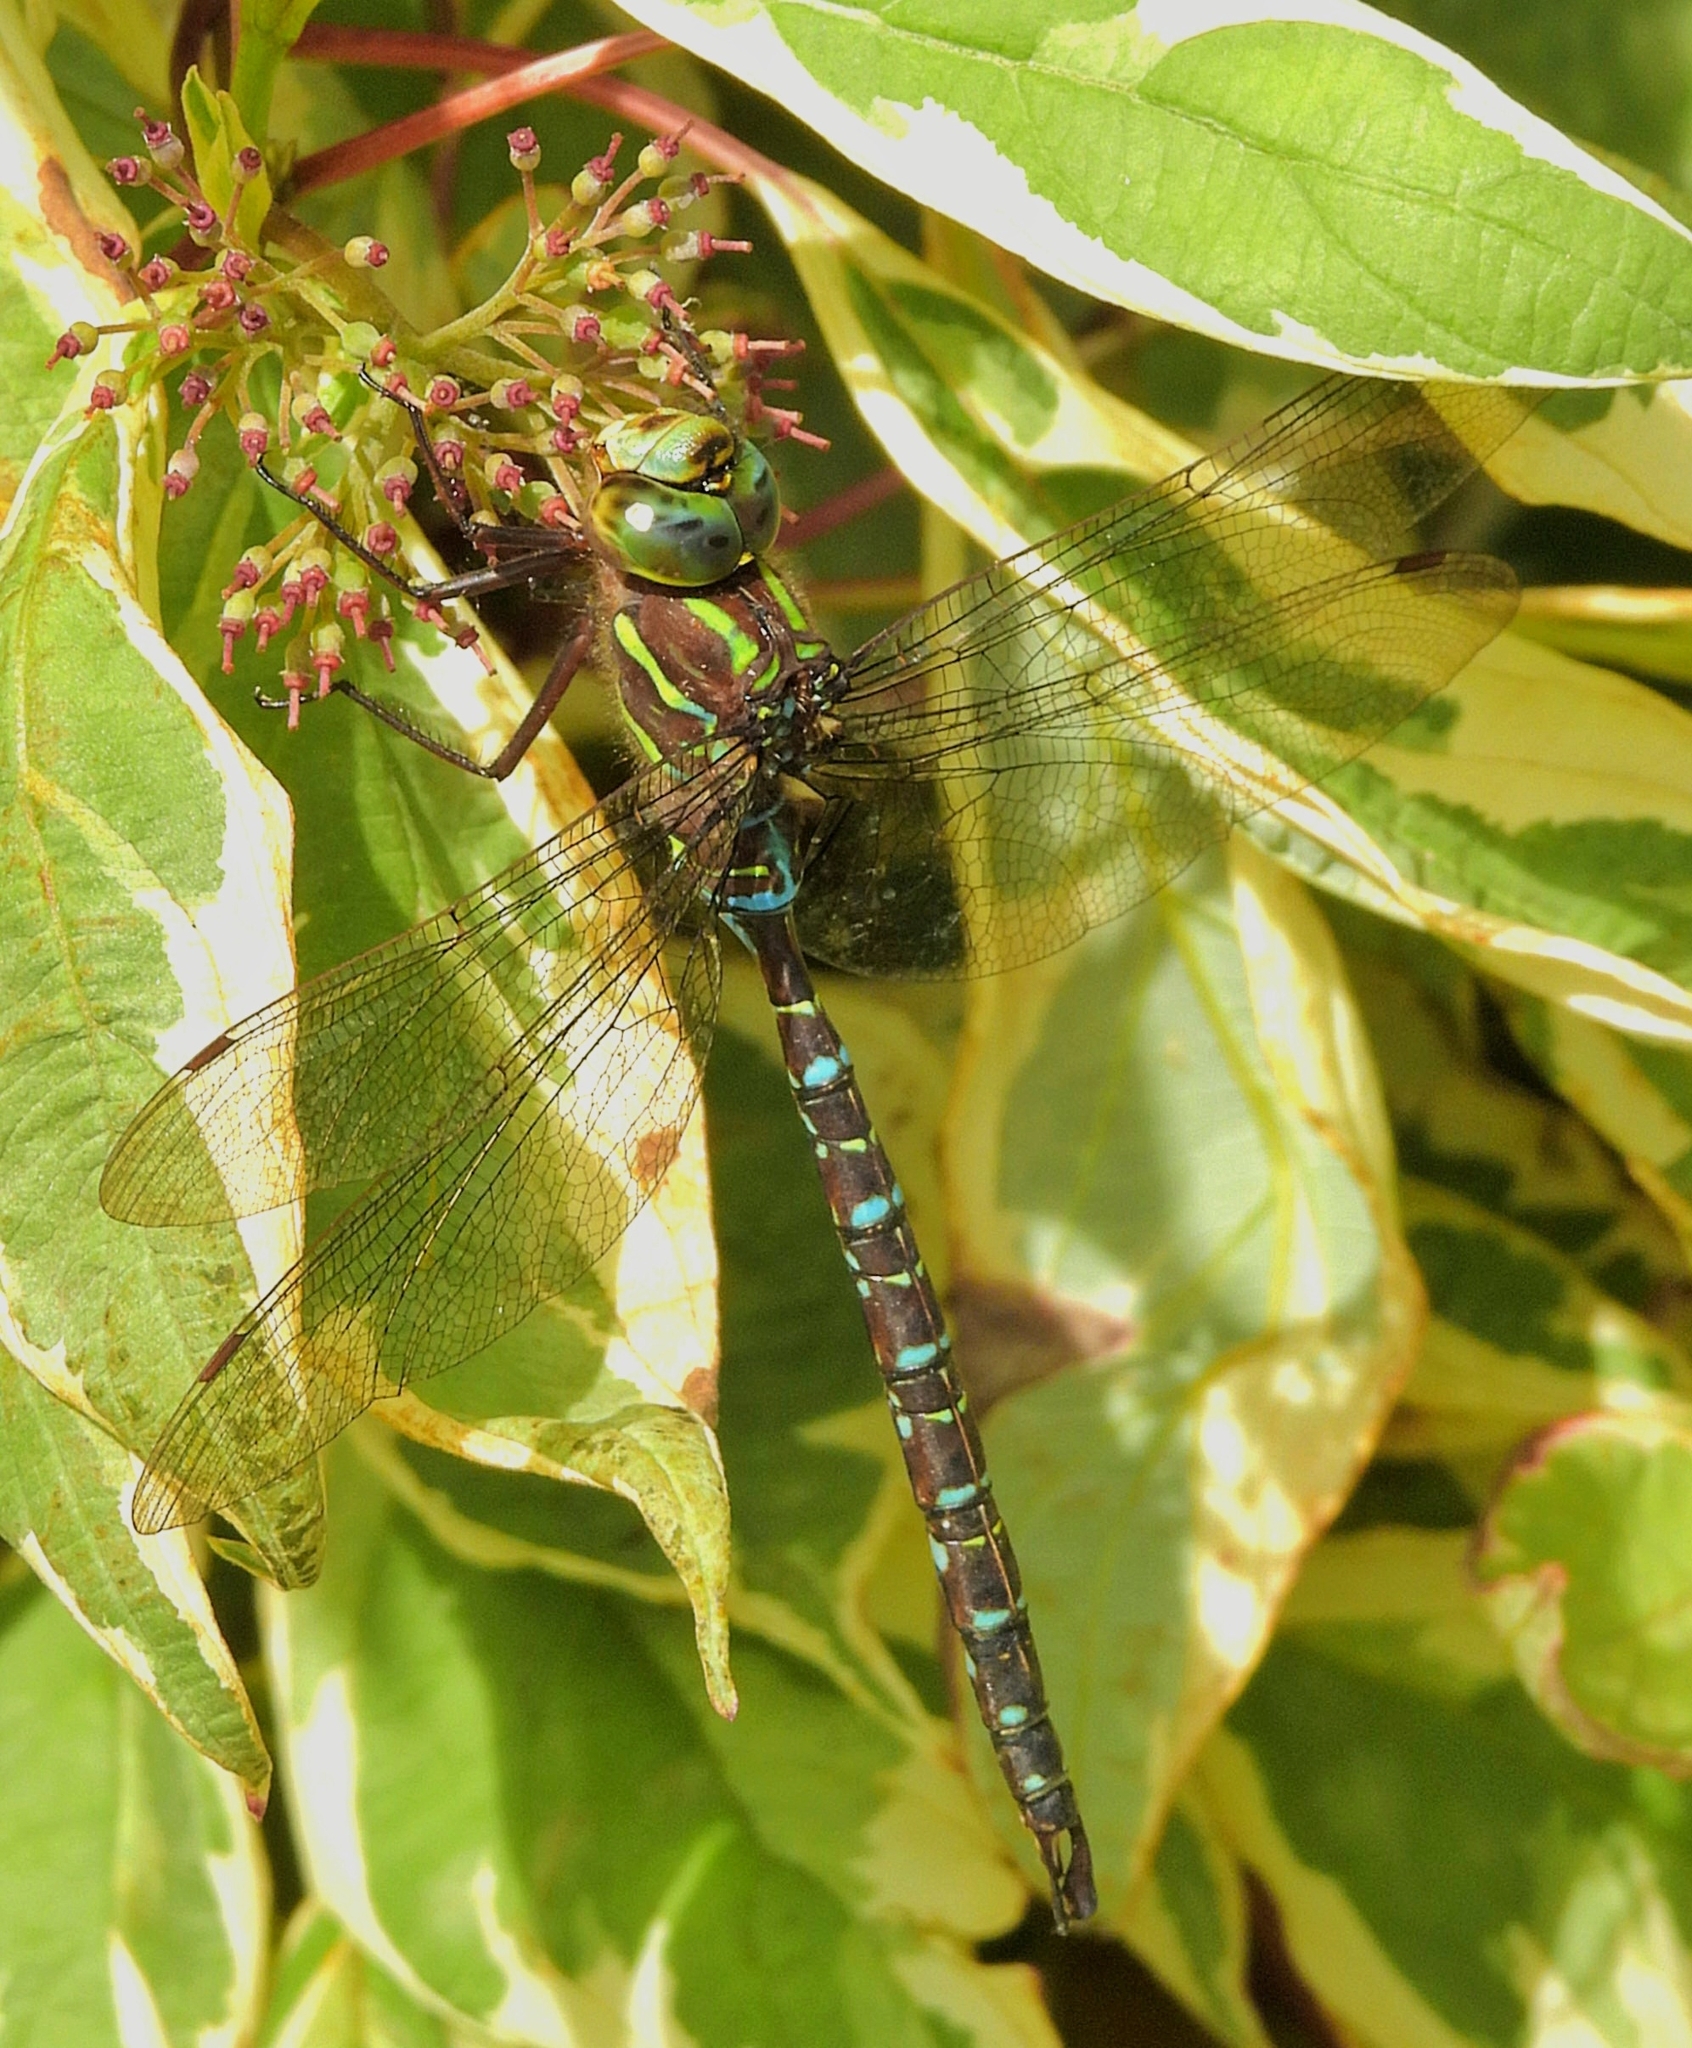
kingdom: Animalia
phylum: Arthropoda
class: Insecta
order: Odonata
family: Aeshnidae
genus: Aeshna
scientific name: Aeshna umbrosa
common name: Shadow darner
